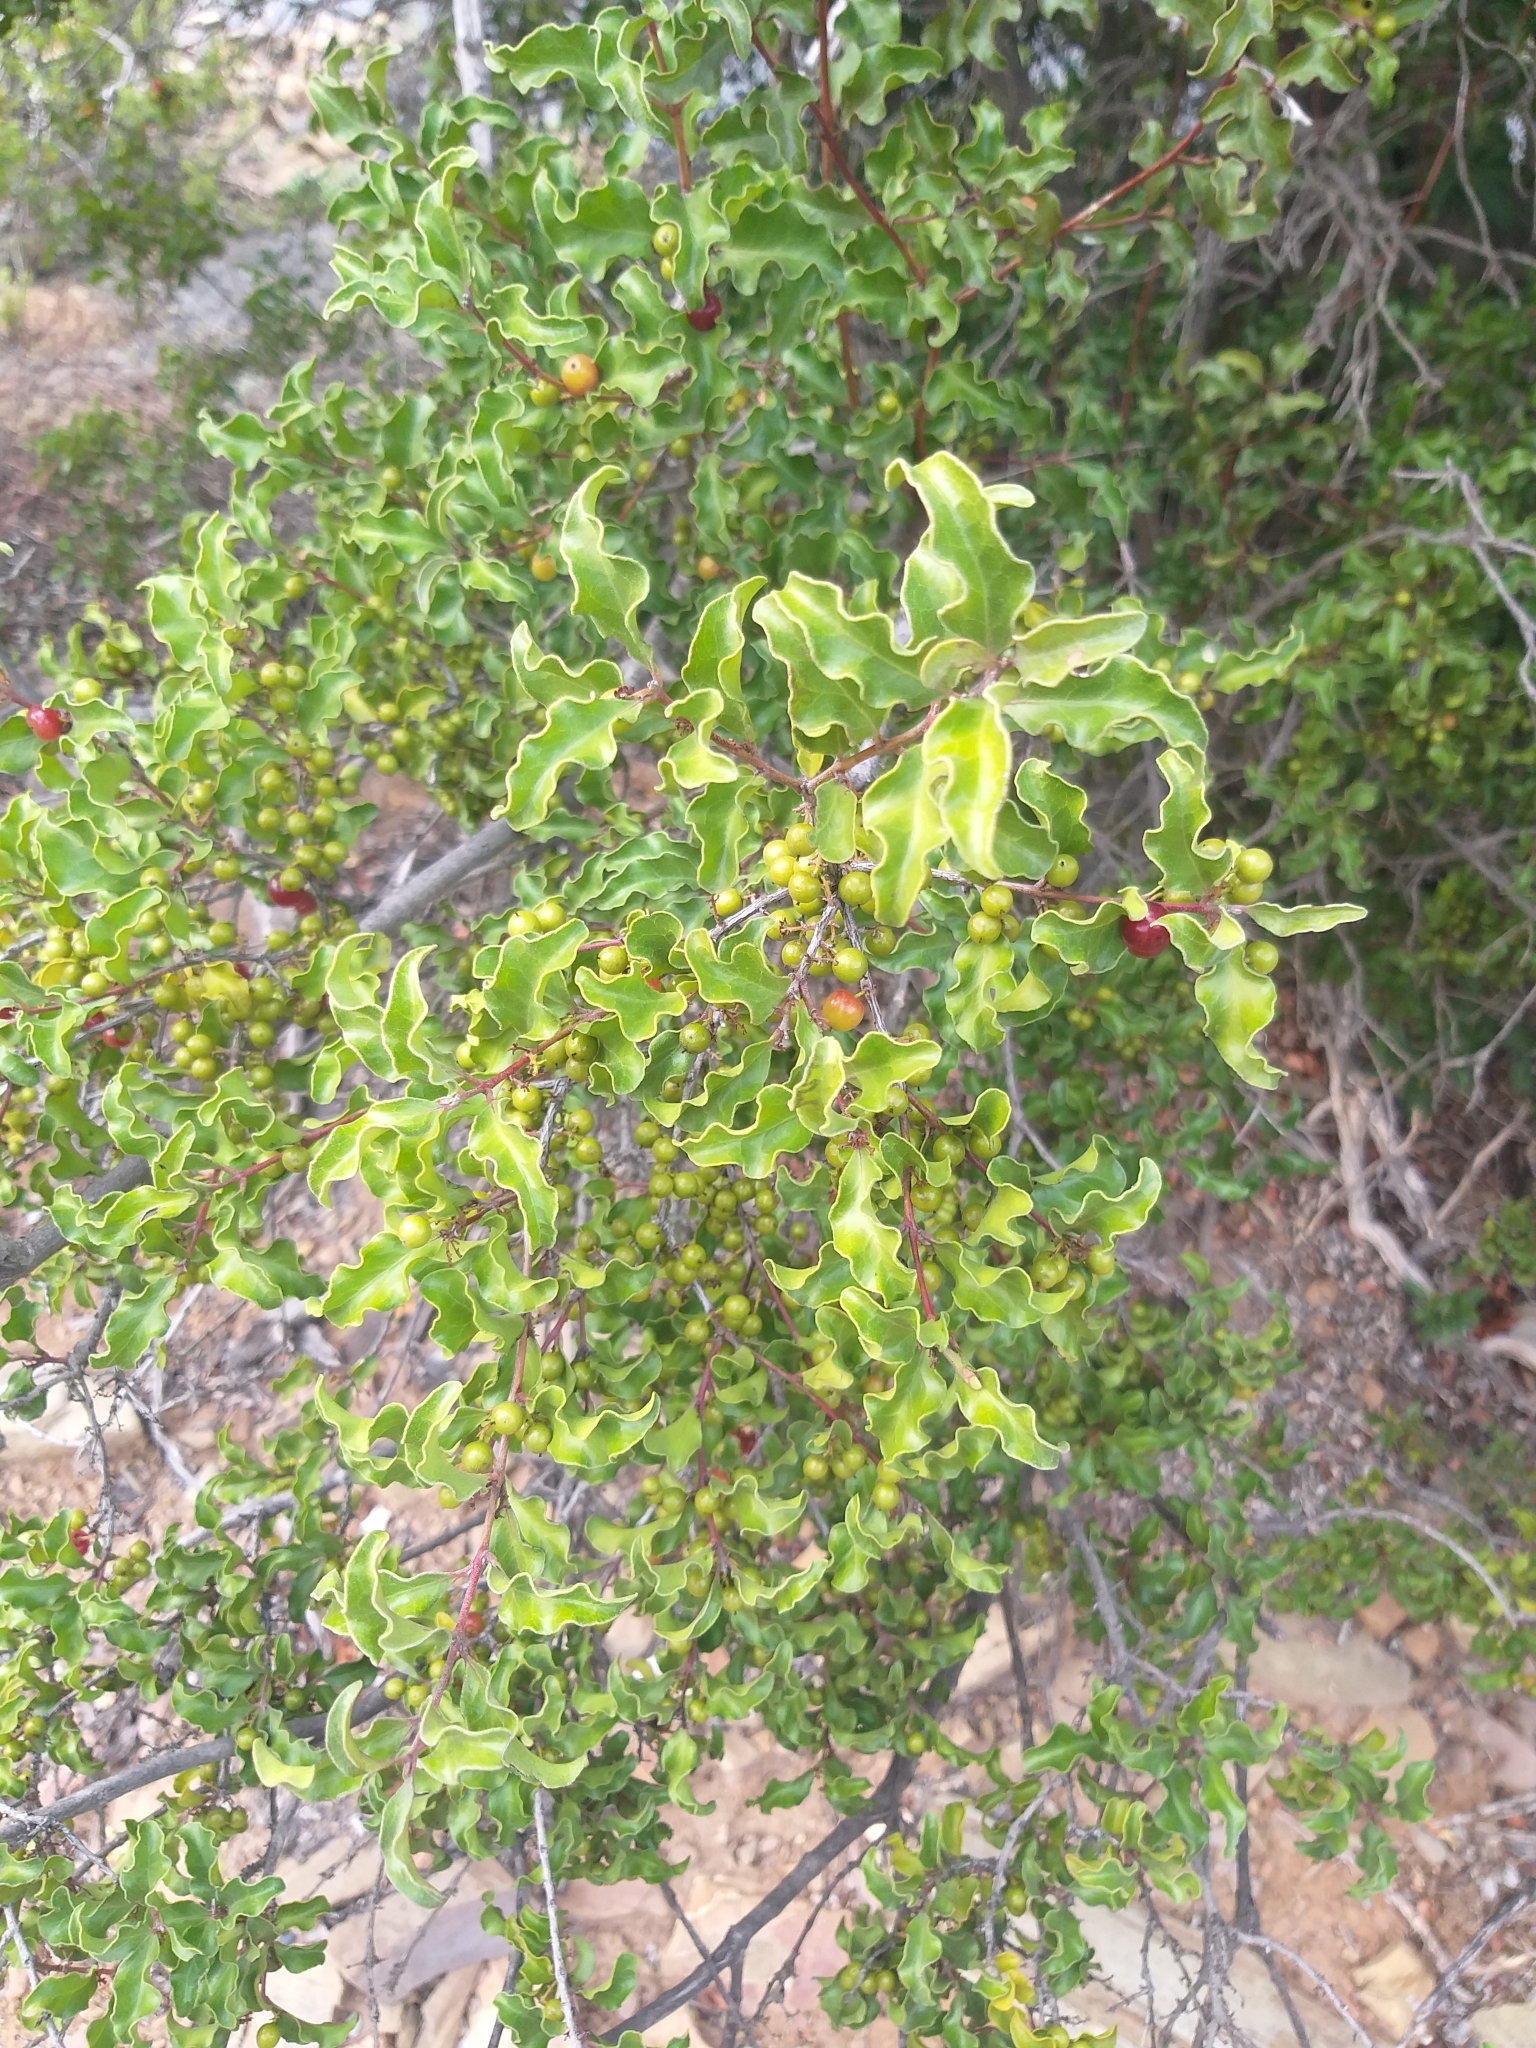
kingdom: Plantae
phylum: Tracheophyta
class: Magnoliopsida
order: Ericales
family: Ebenaceae
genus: Euclea
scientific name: Euclea undulata
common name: Small-leaved guarri
